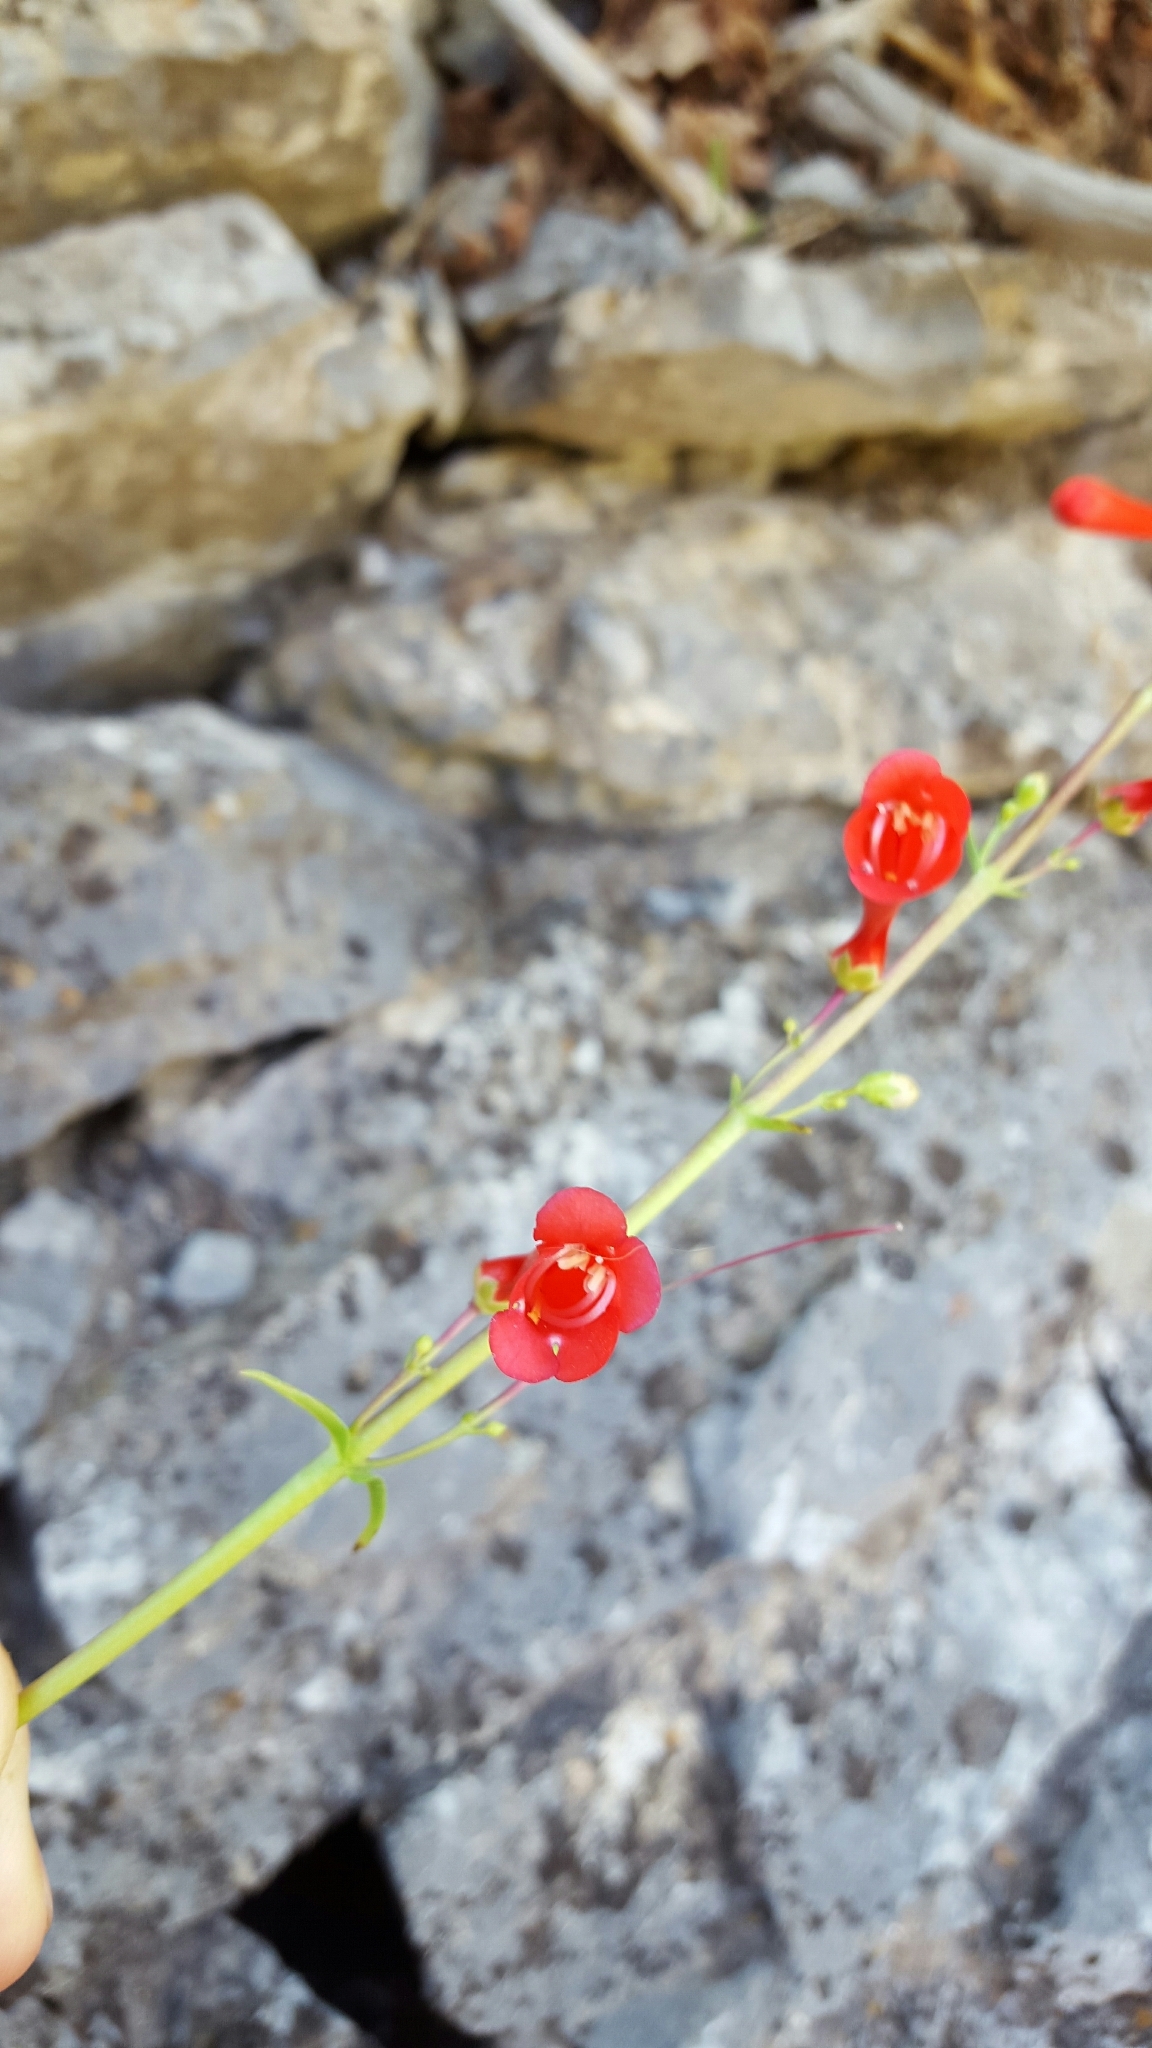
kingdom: Plantae
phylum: Tracheophyta
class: Magnoliopsida
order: Lamiales
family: Plantaginaceae
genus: Penstemon
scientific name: Penstemon eatonii
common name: Eaton's penstemon
